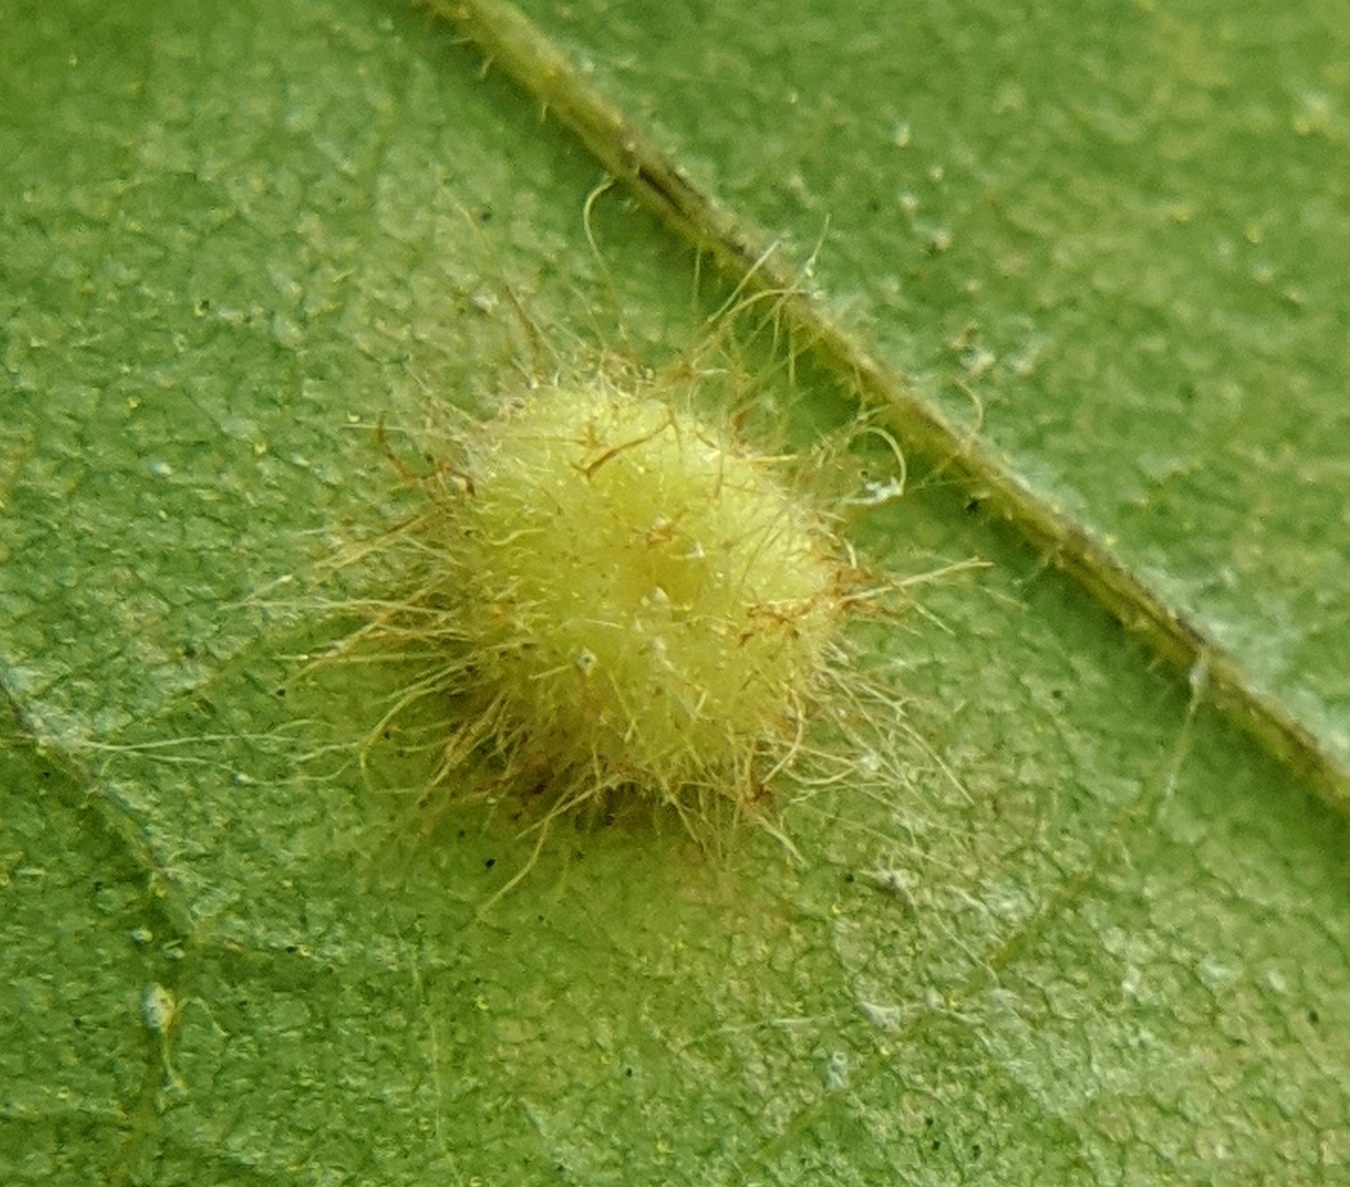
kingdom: Animalia
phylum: Arthropoda
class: Insecta
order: Diptera
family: Cecidomyiidae
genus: Caryomyia
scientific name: Caryomyia thompsoni
